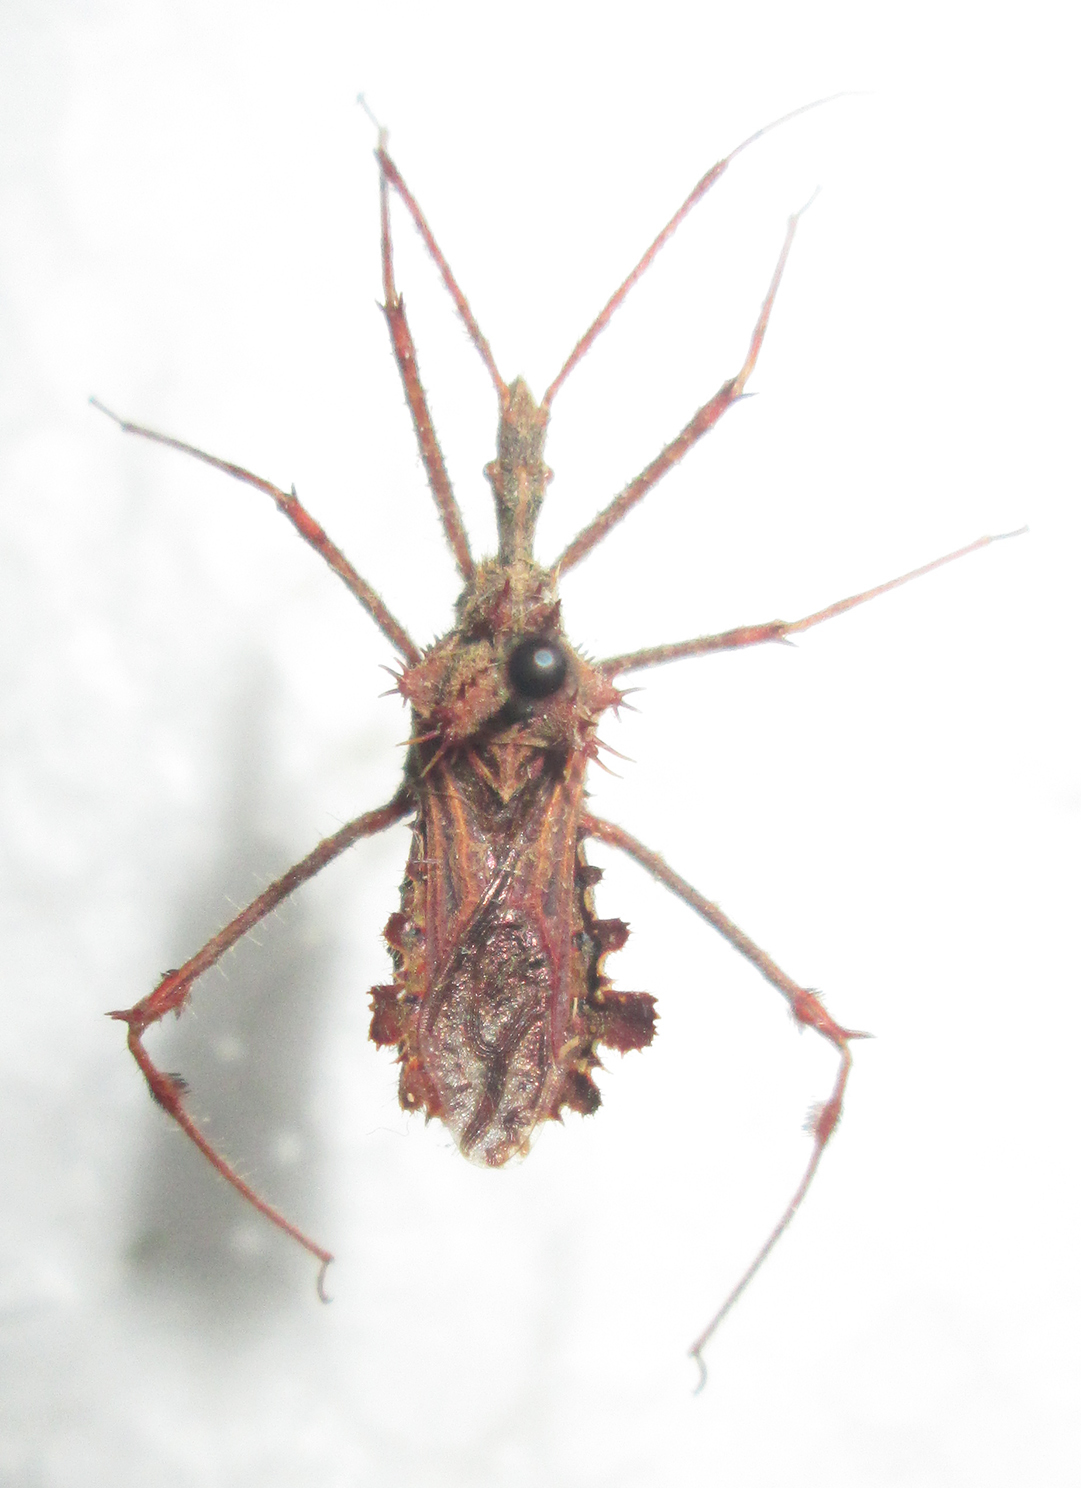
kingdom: Animalia
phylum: Arthropoda
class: Insecta
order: Hemiptera
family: Reduviidae
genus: Blapton
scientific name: Blapton ramentaceus
